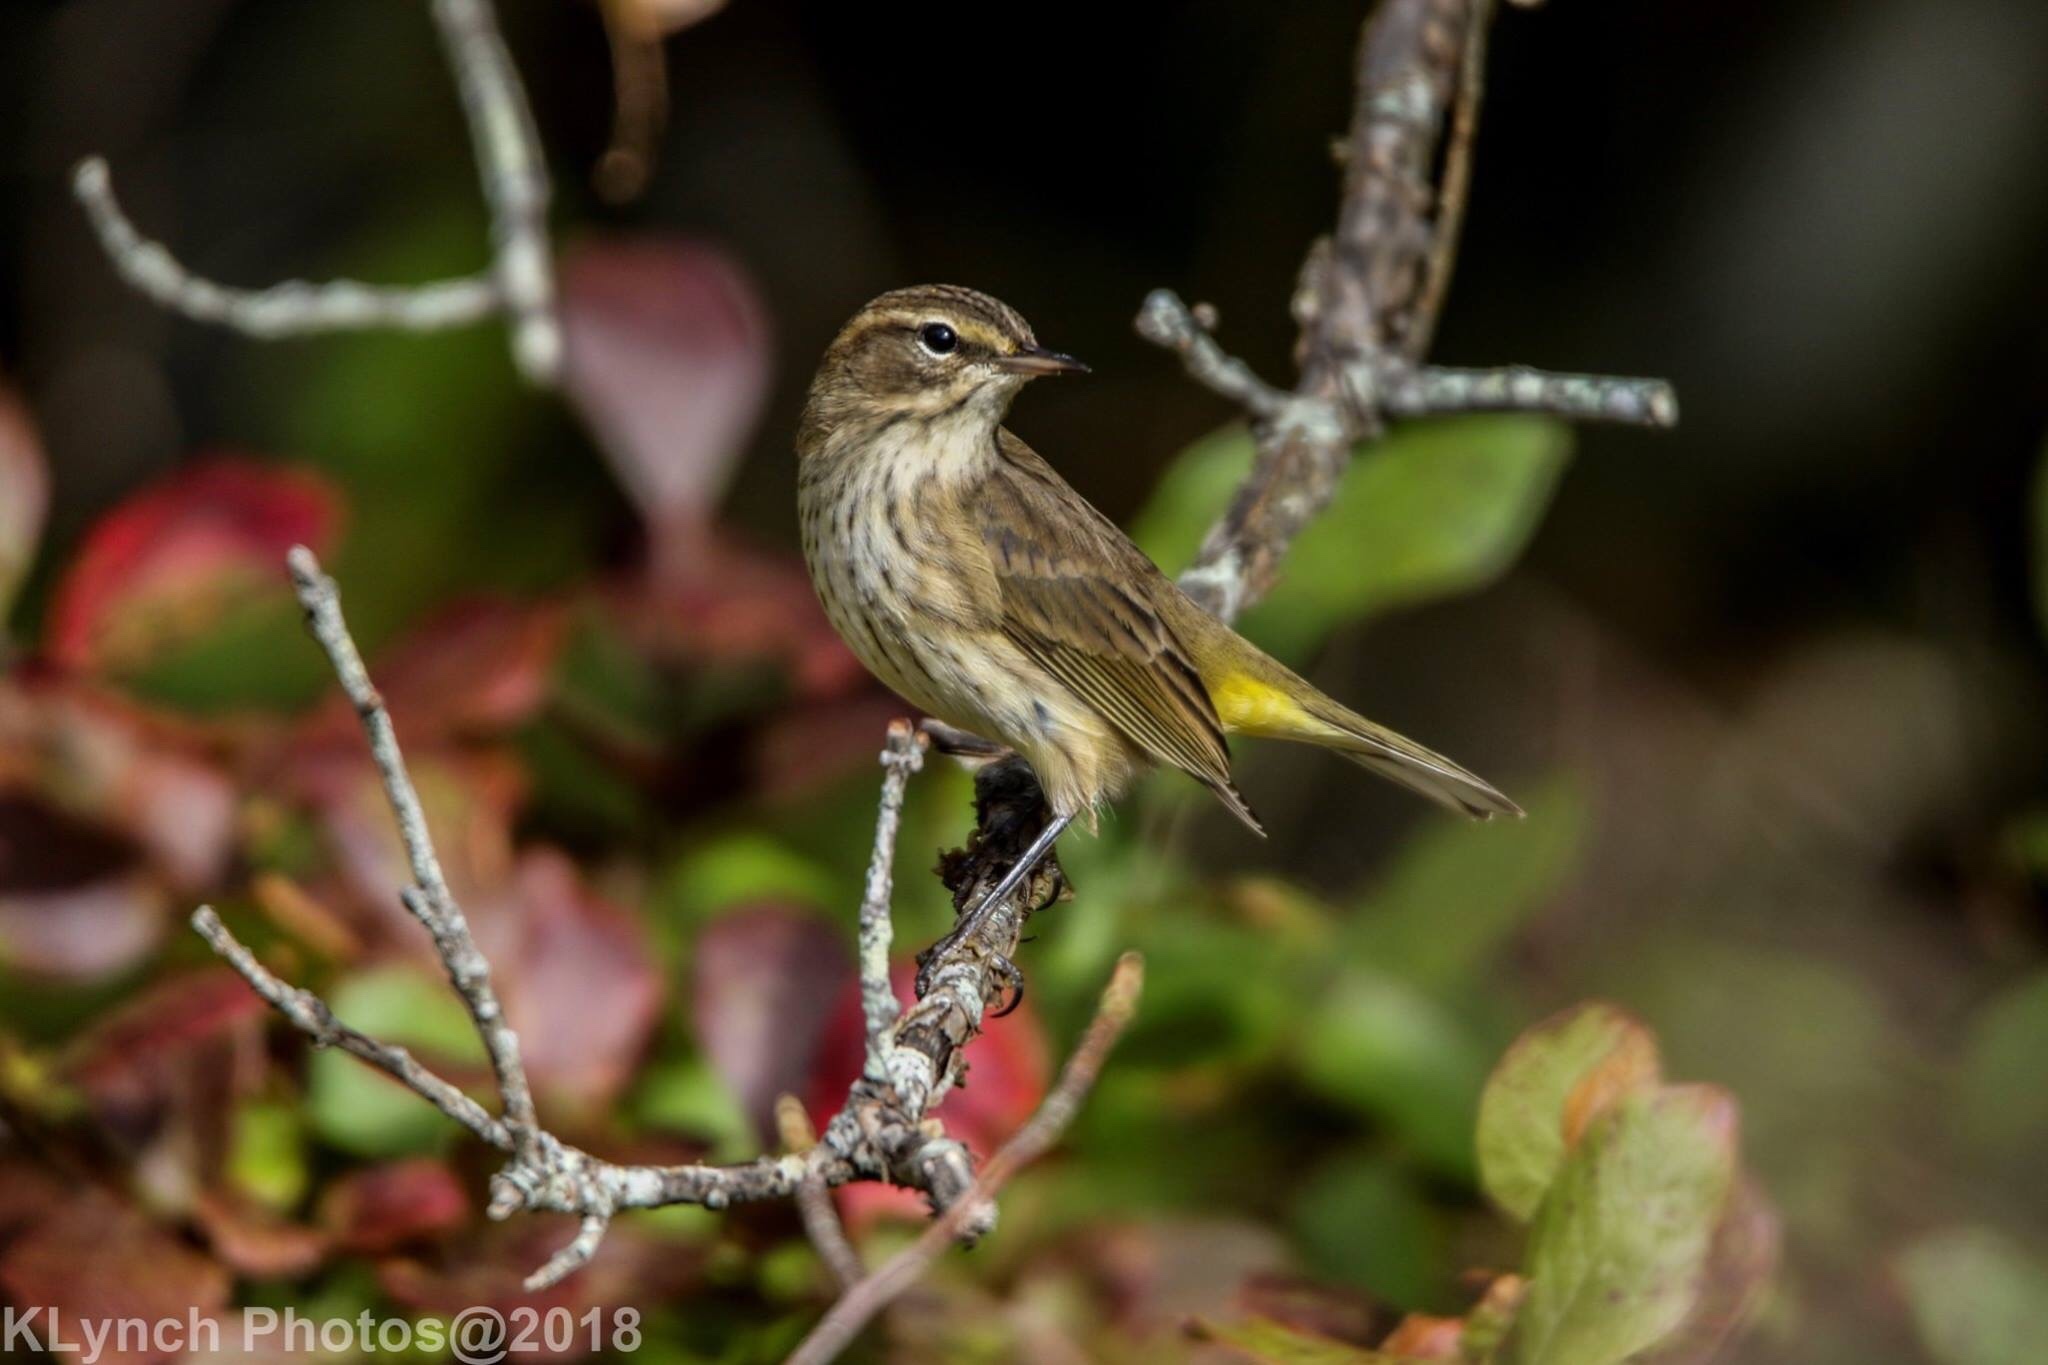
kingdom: Animalia
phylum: Chordata
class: Aves
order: Passeriformes
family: Parulidae
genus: Setophaga
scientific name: Setophaga palmarum
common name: Palm warbler
